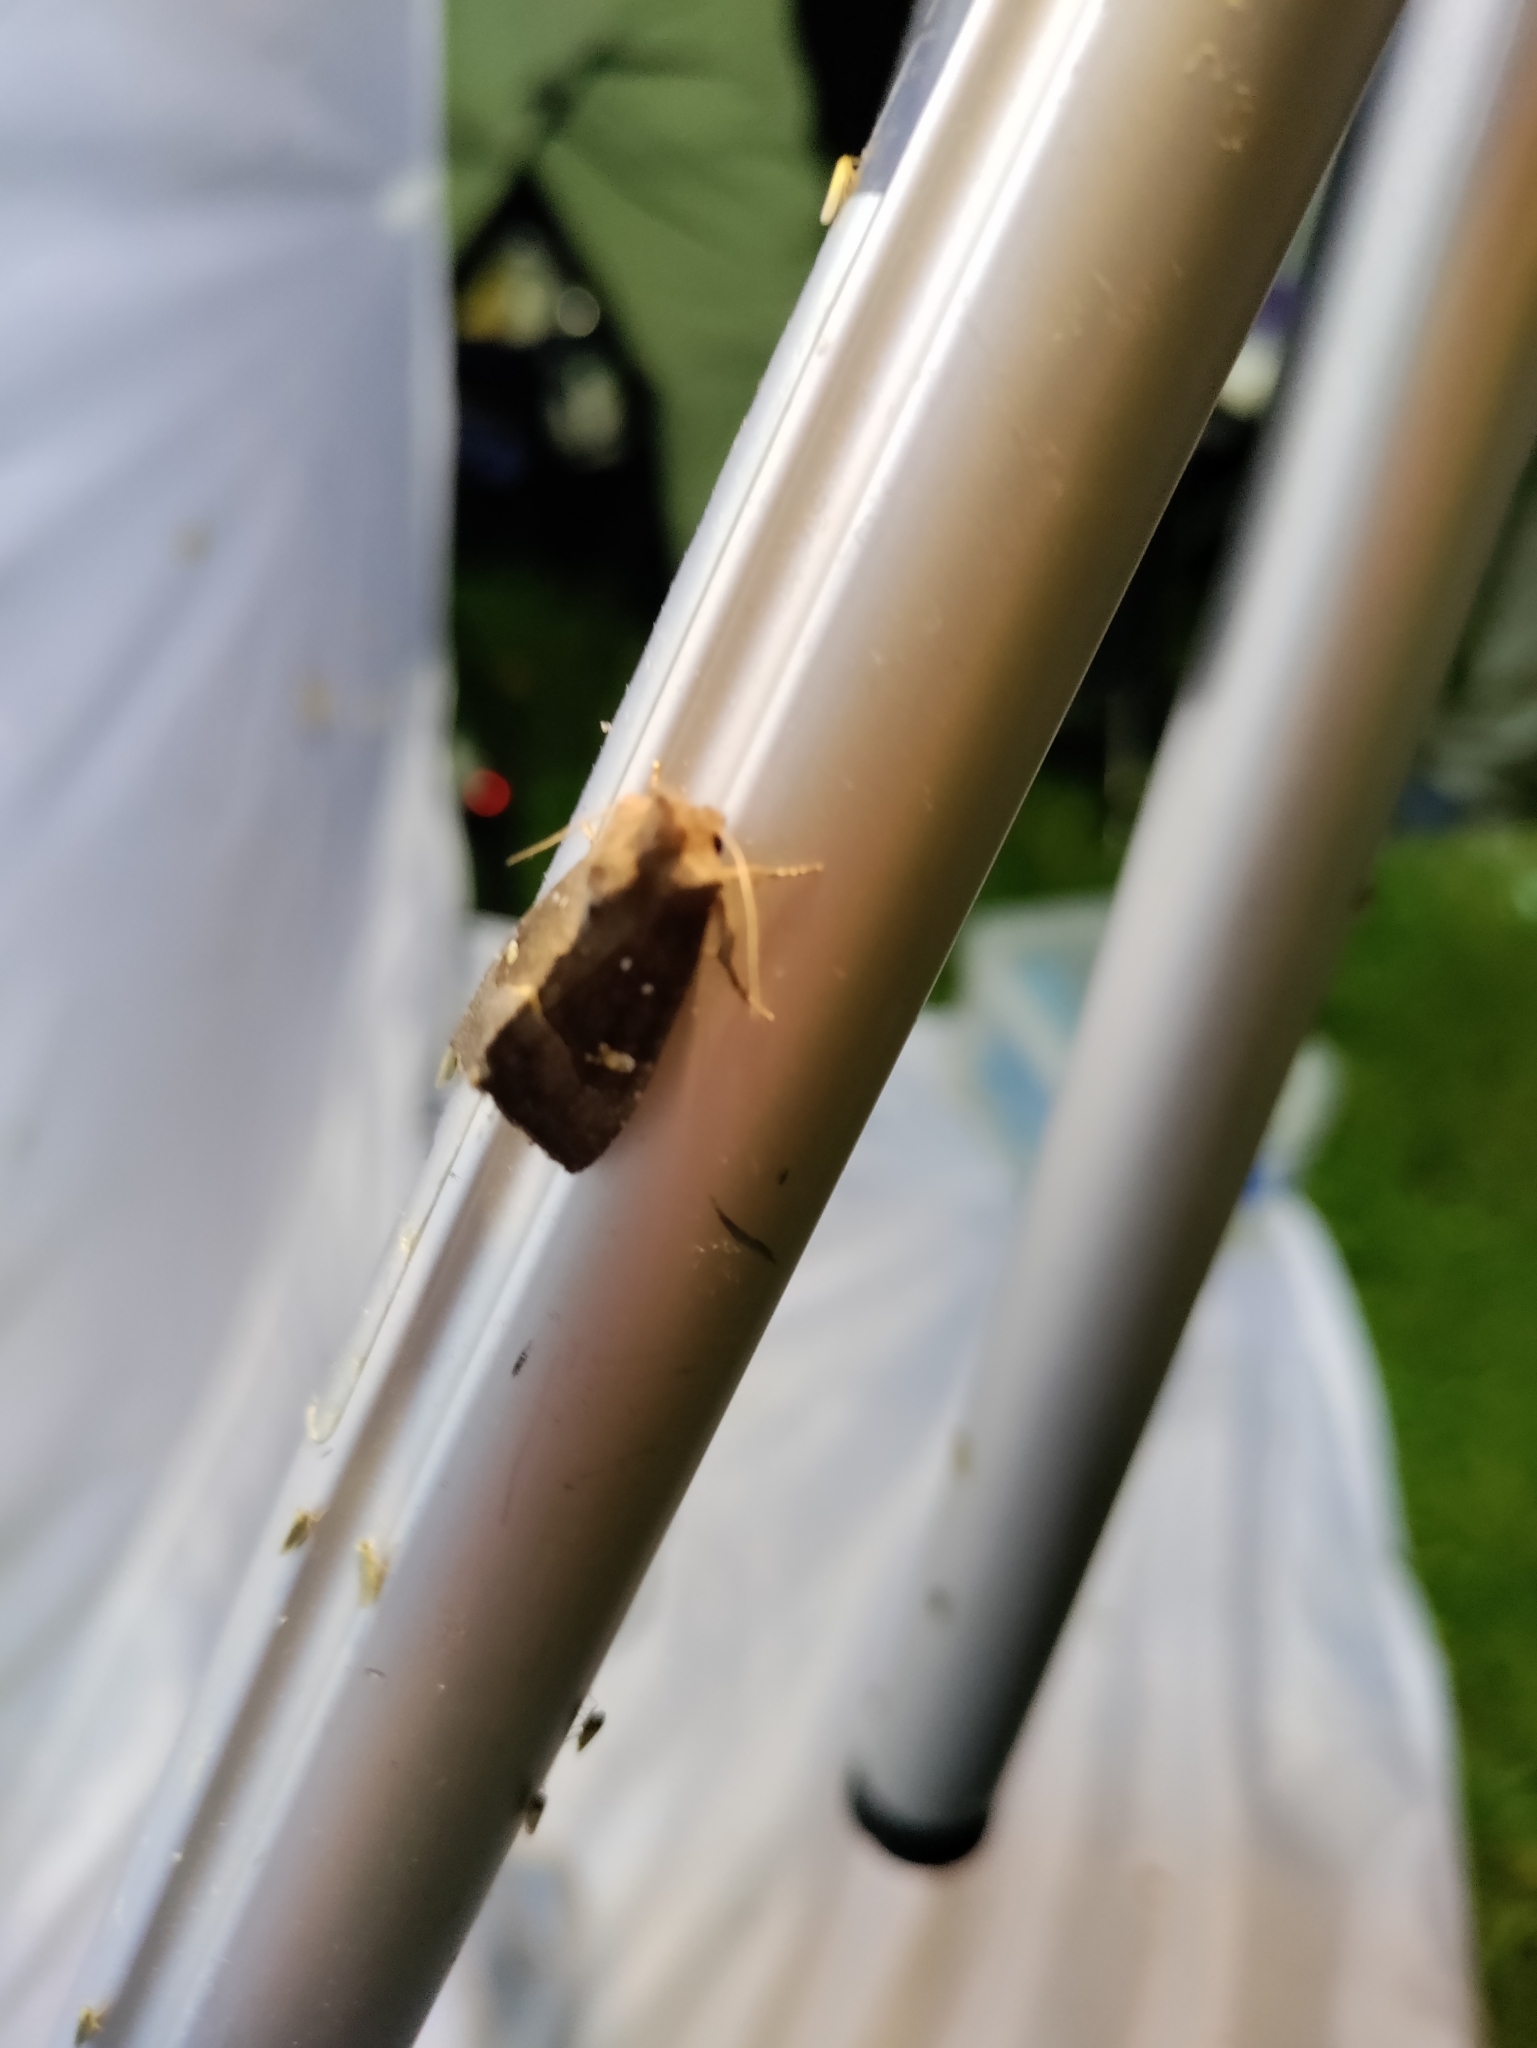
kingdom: Animalia
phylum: Arthropoda
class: Insecta
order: Lepidoptera
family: Noctuidae
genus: Papaipema
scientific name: Papaipema nebris
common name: Stalk borer
